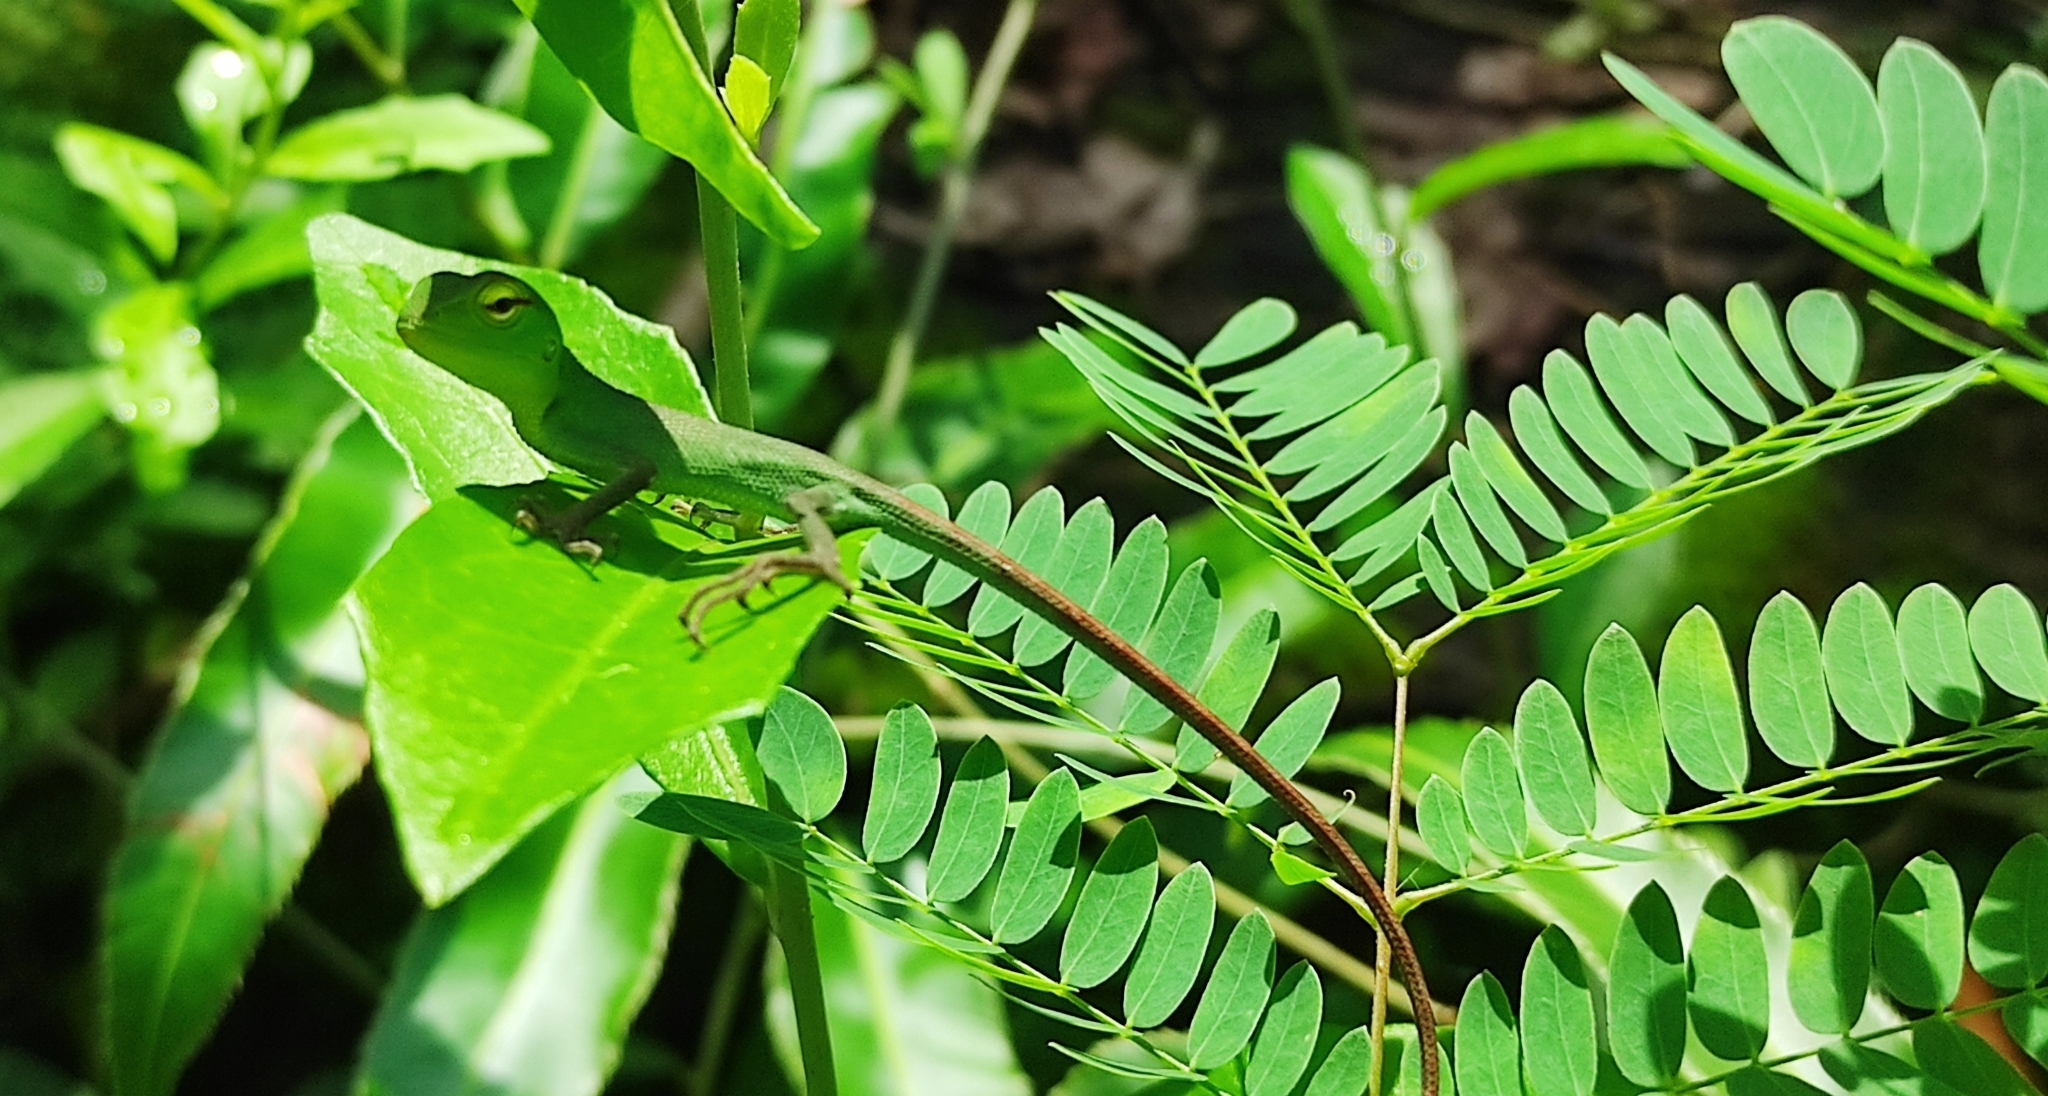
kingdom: Animalia
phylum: Chordata
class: Squamata
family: Agamidae
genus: Calotes
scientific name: Calotes calotes
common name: Common green forest lizard
